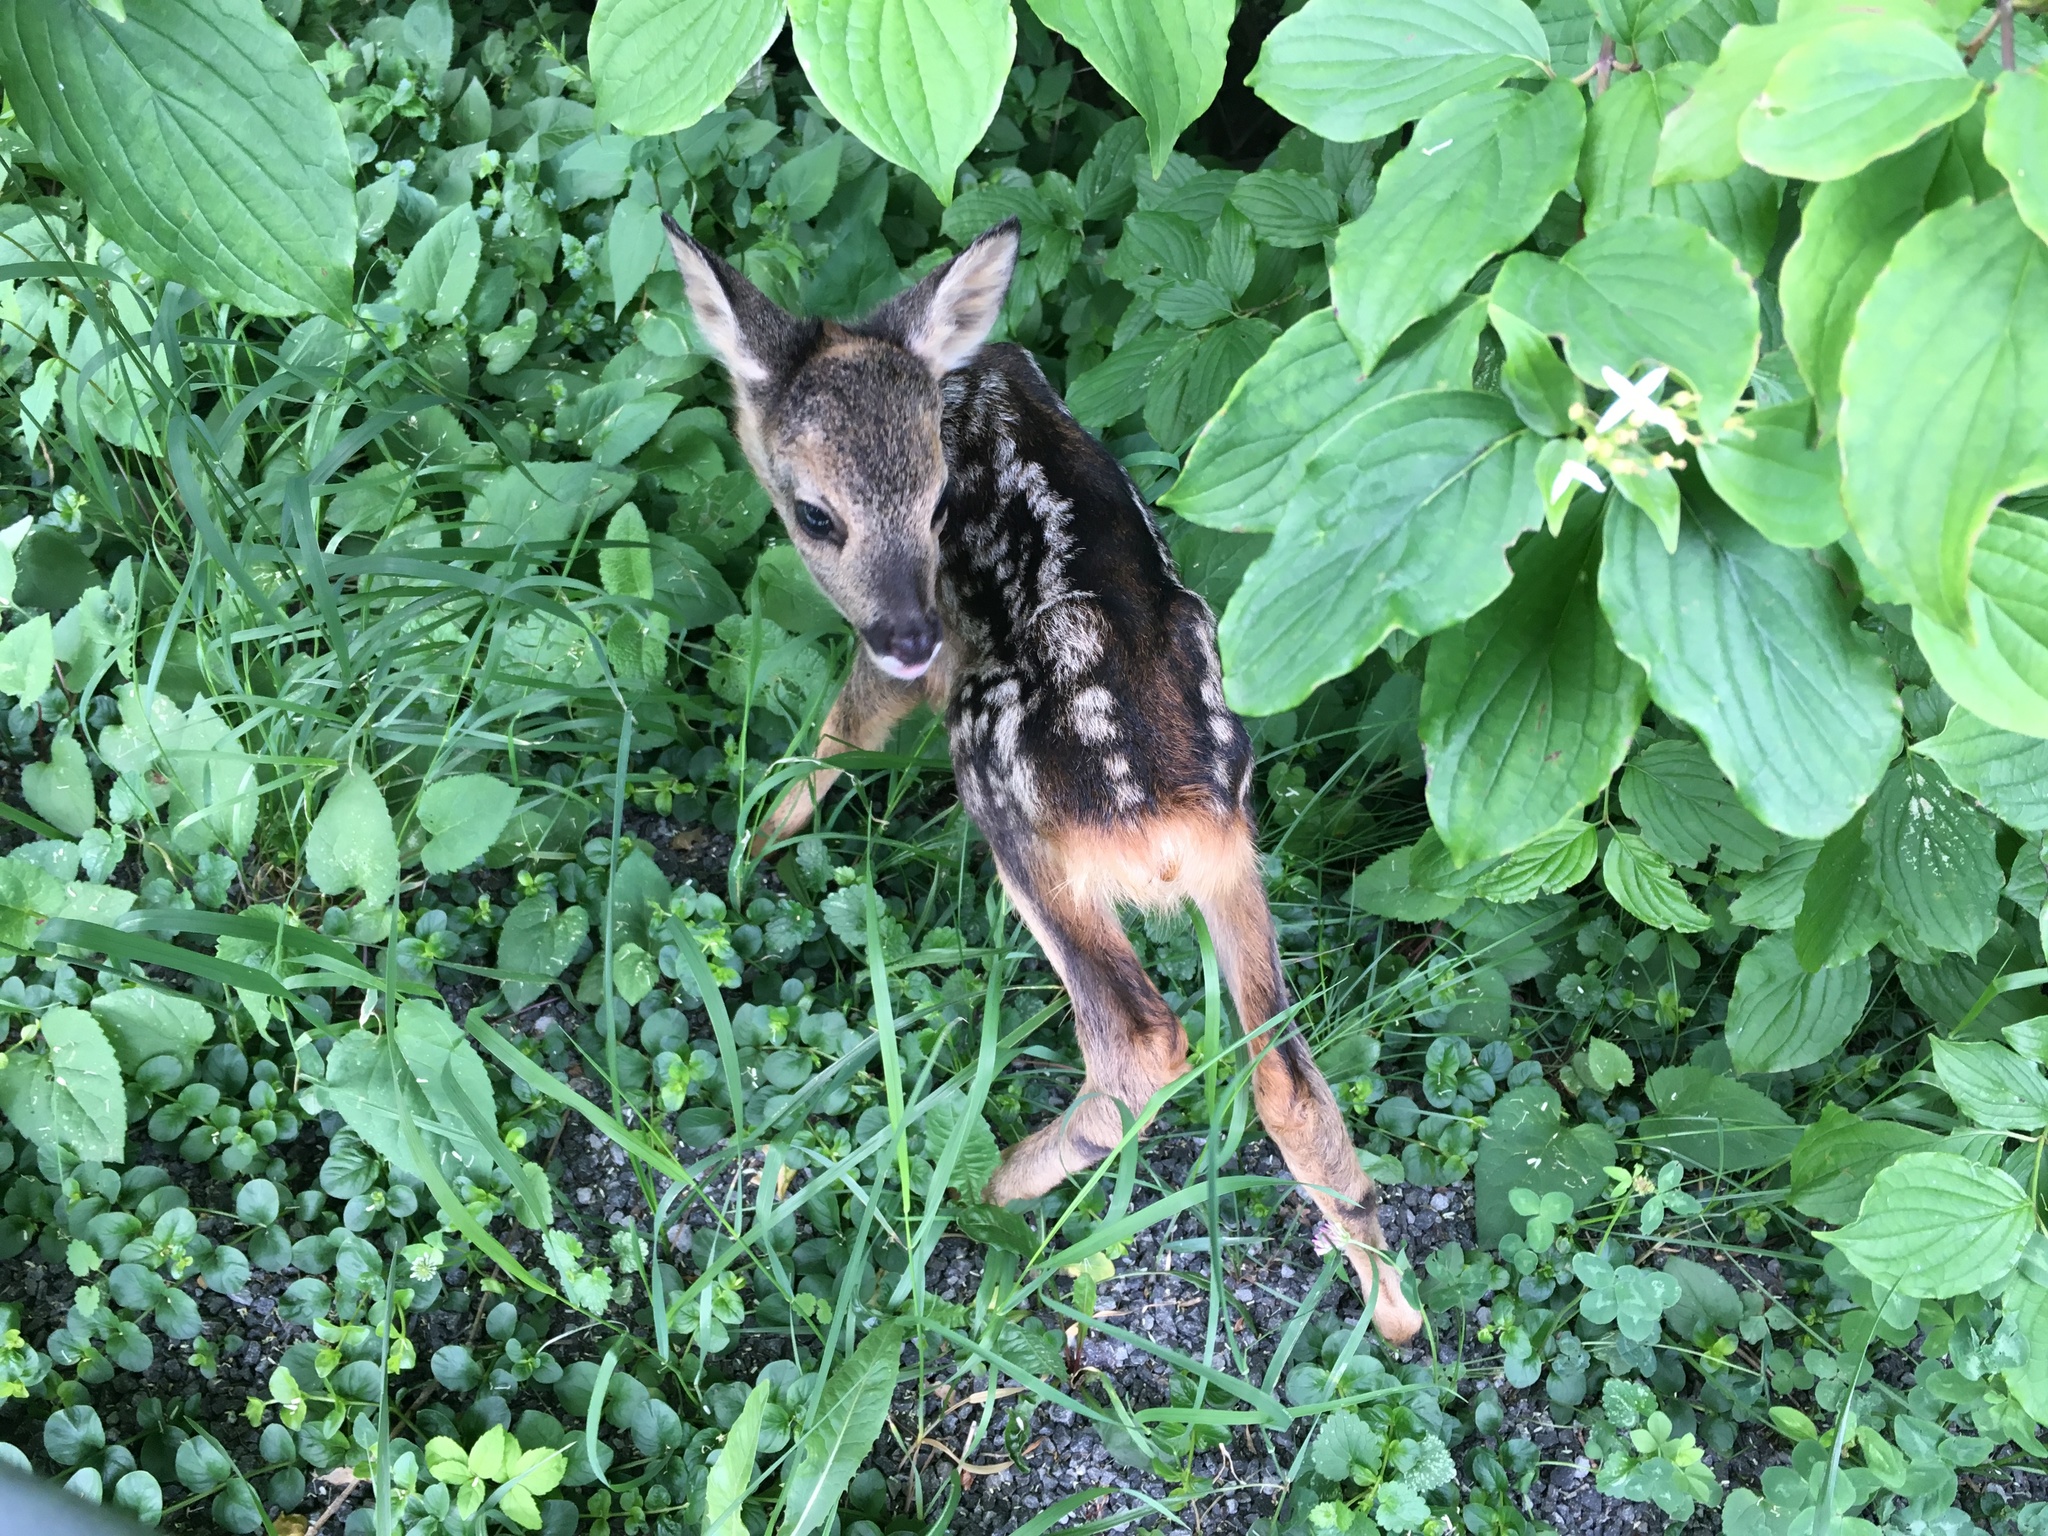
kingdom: Animalia
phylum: Chordata
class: Mammalia
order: Artiodactyla
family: Cervidae
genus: Capreolus
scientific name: Capreolus capreolus
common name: Western roe deer
